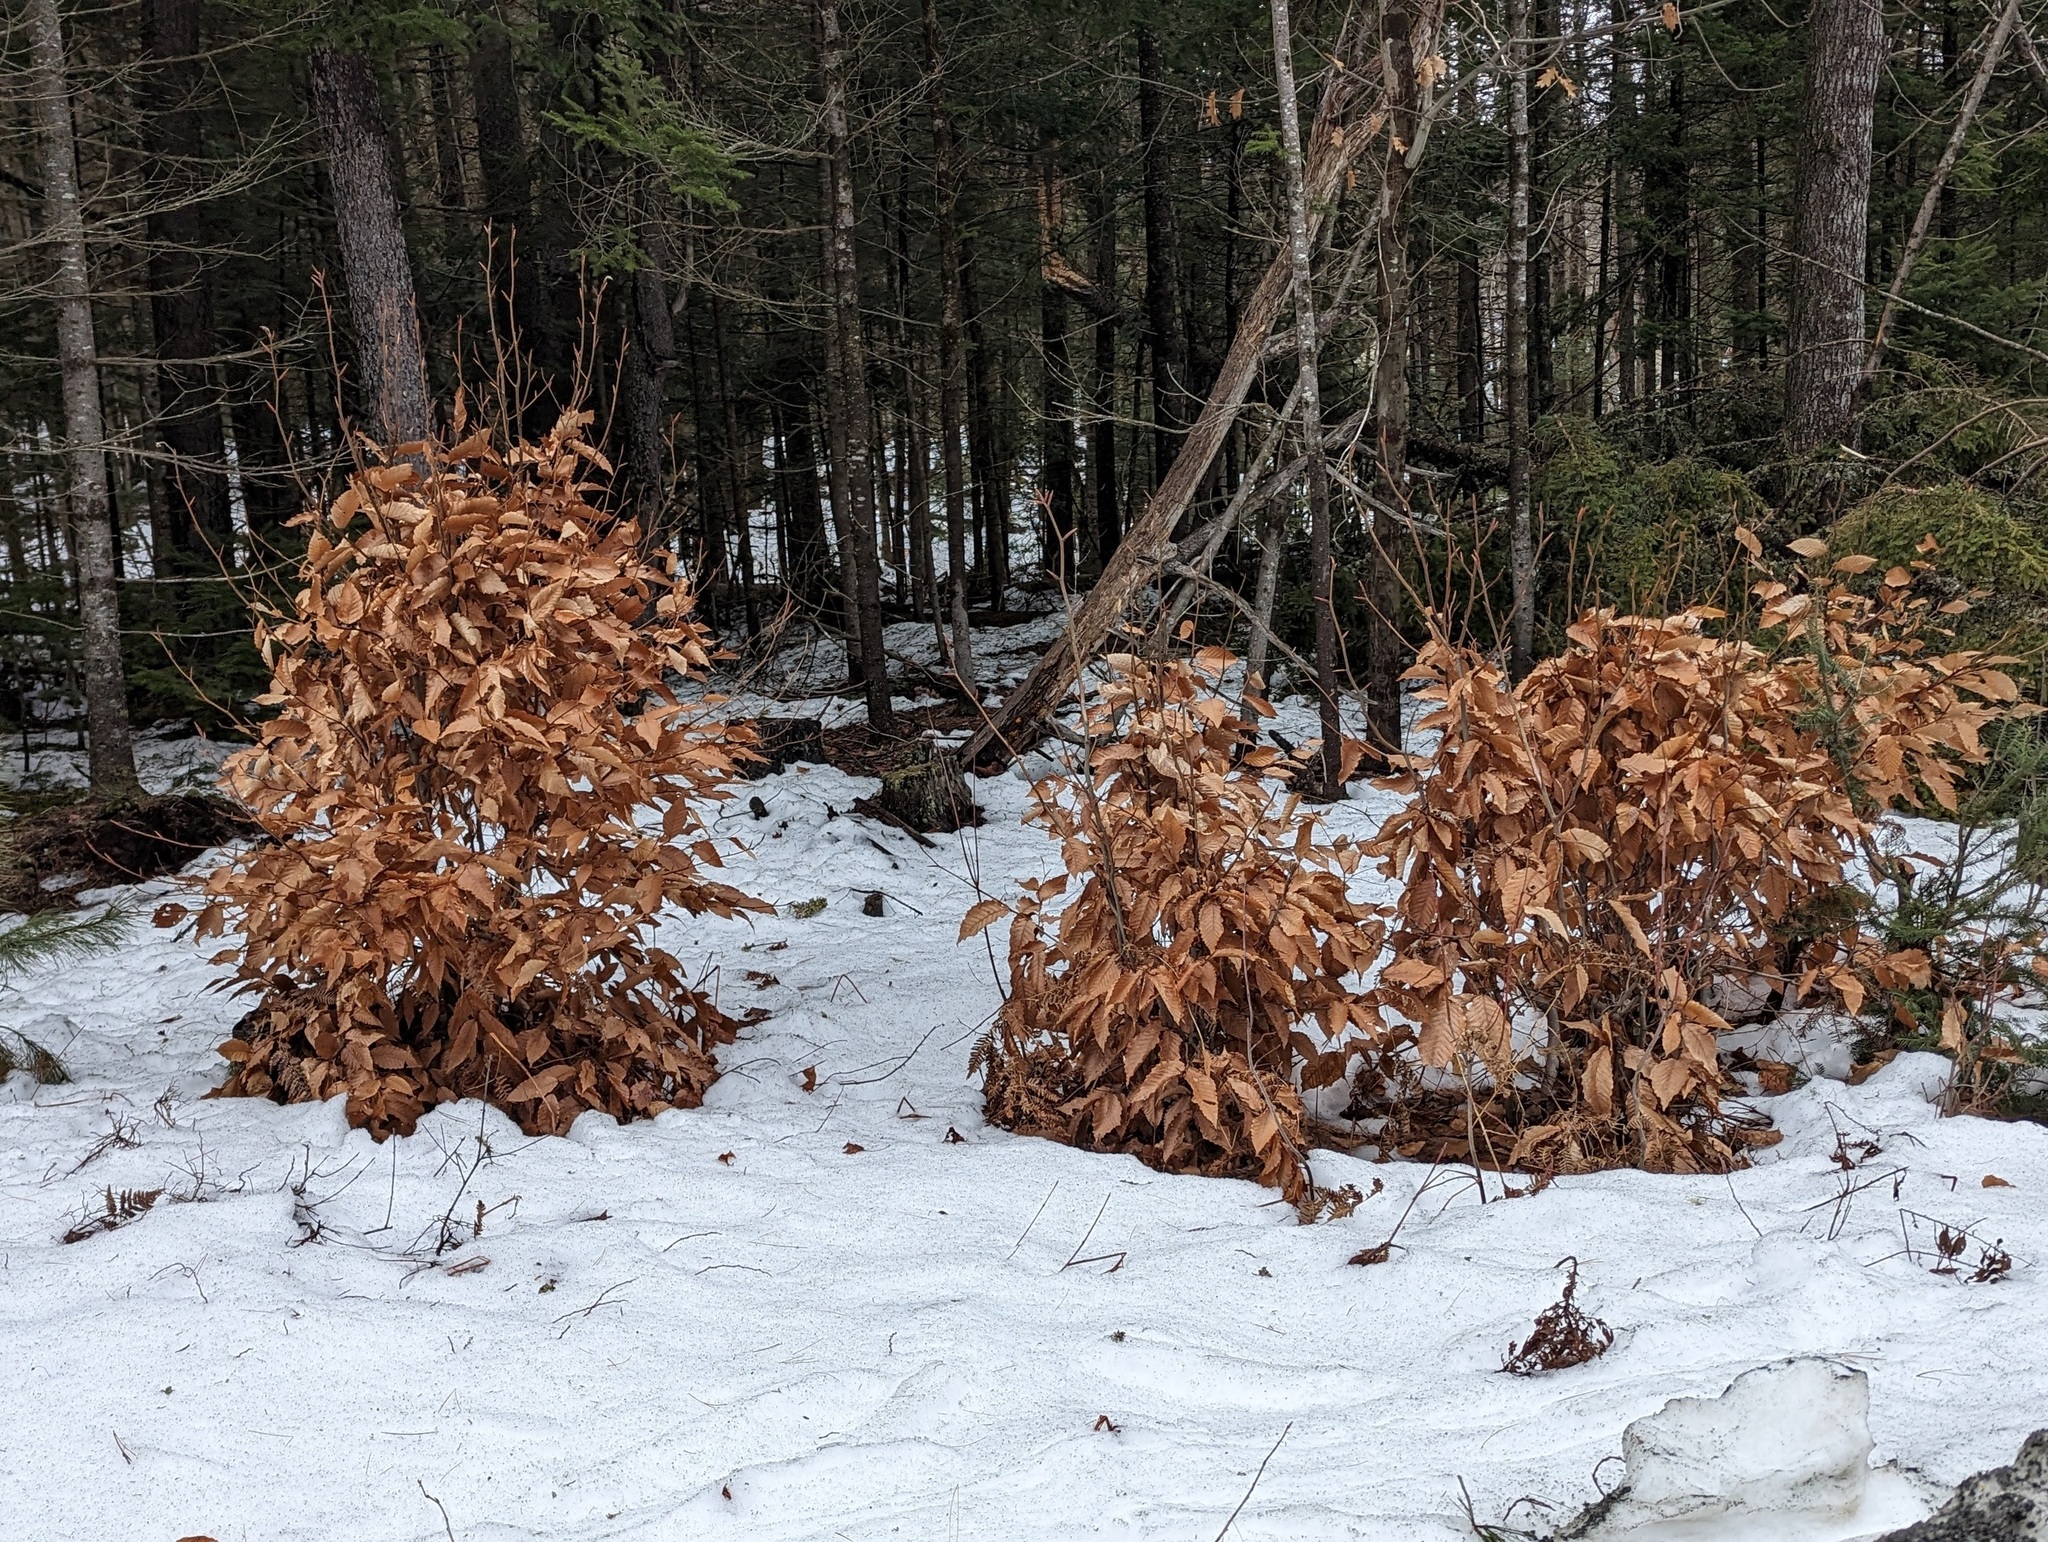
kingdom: Plantae
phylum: Tracheophyta
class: Magnoliopsida
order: Fagales
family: Fagaceae
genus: Fagus
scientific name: Fagus grandifolia
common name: American beech
